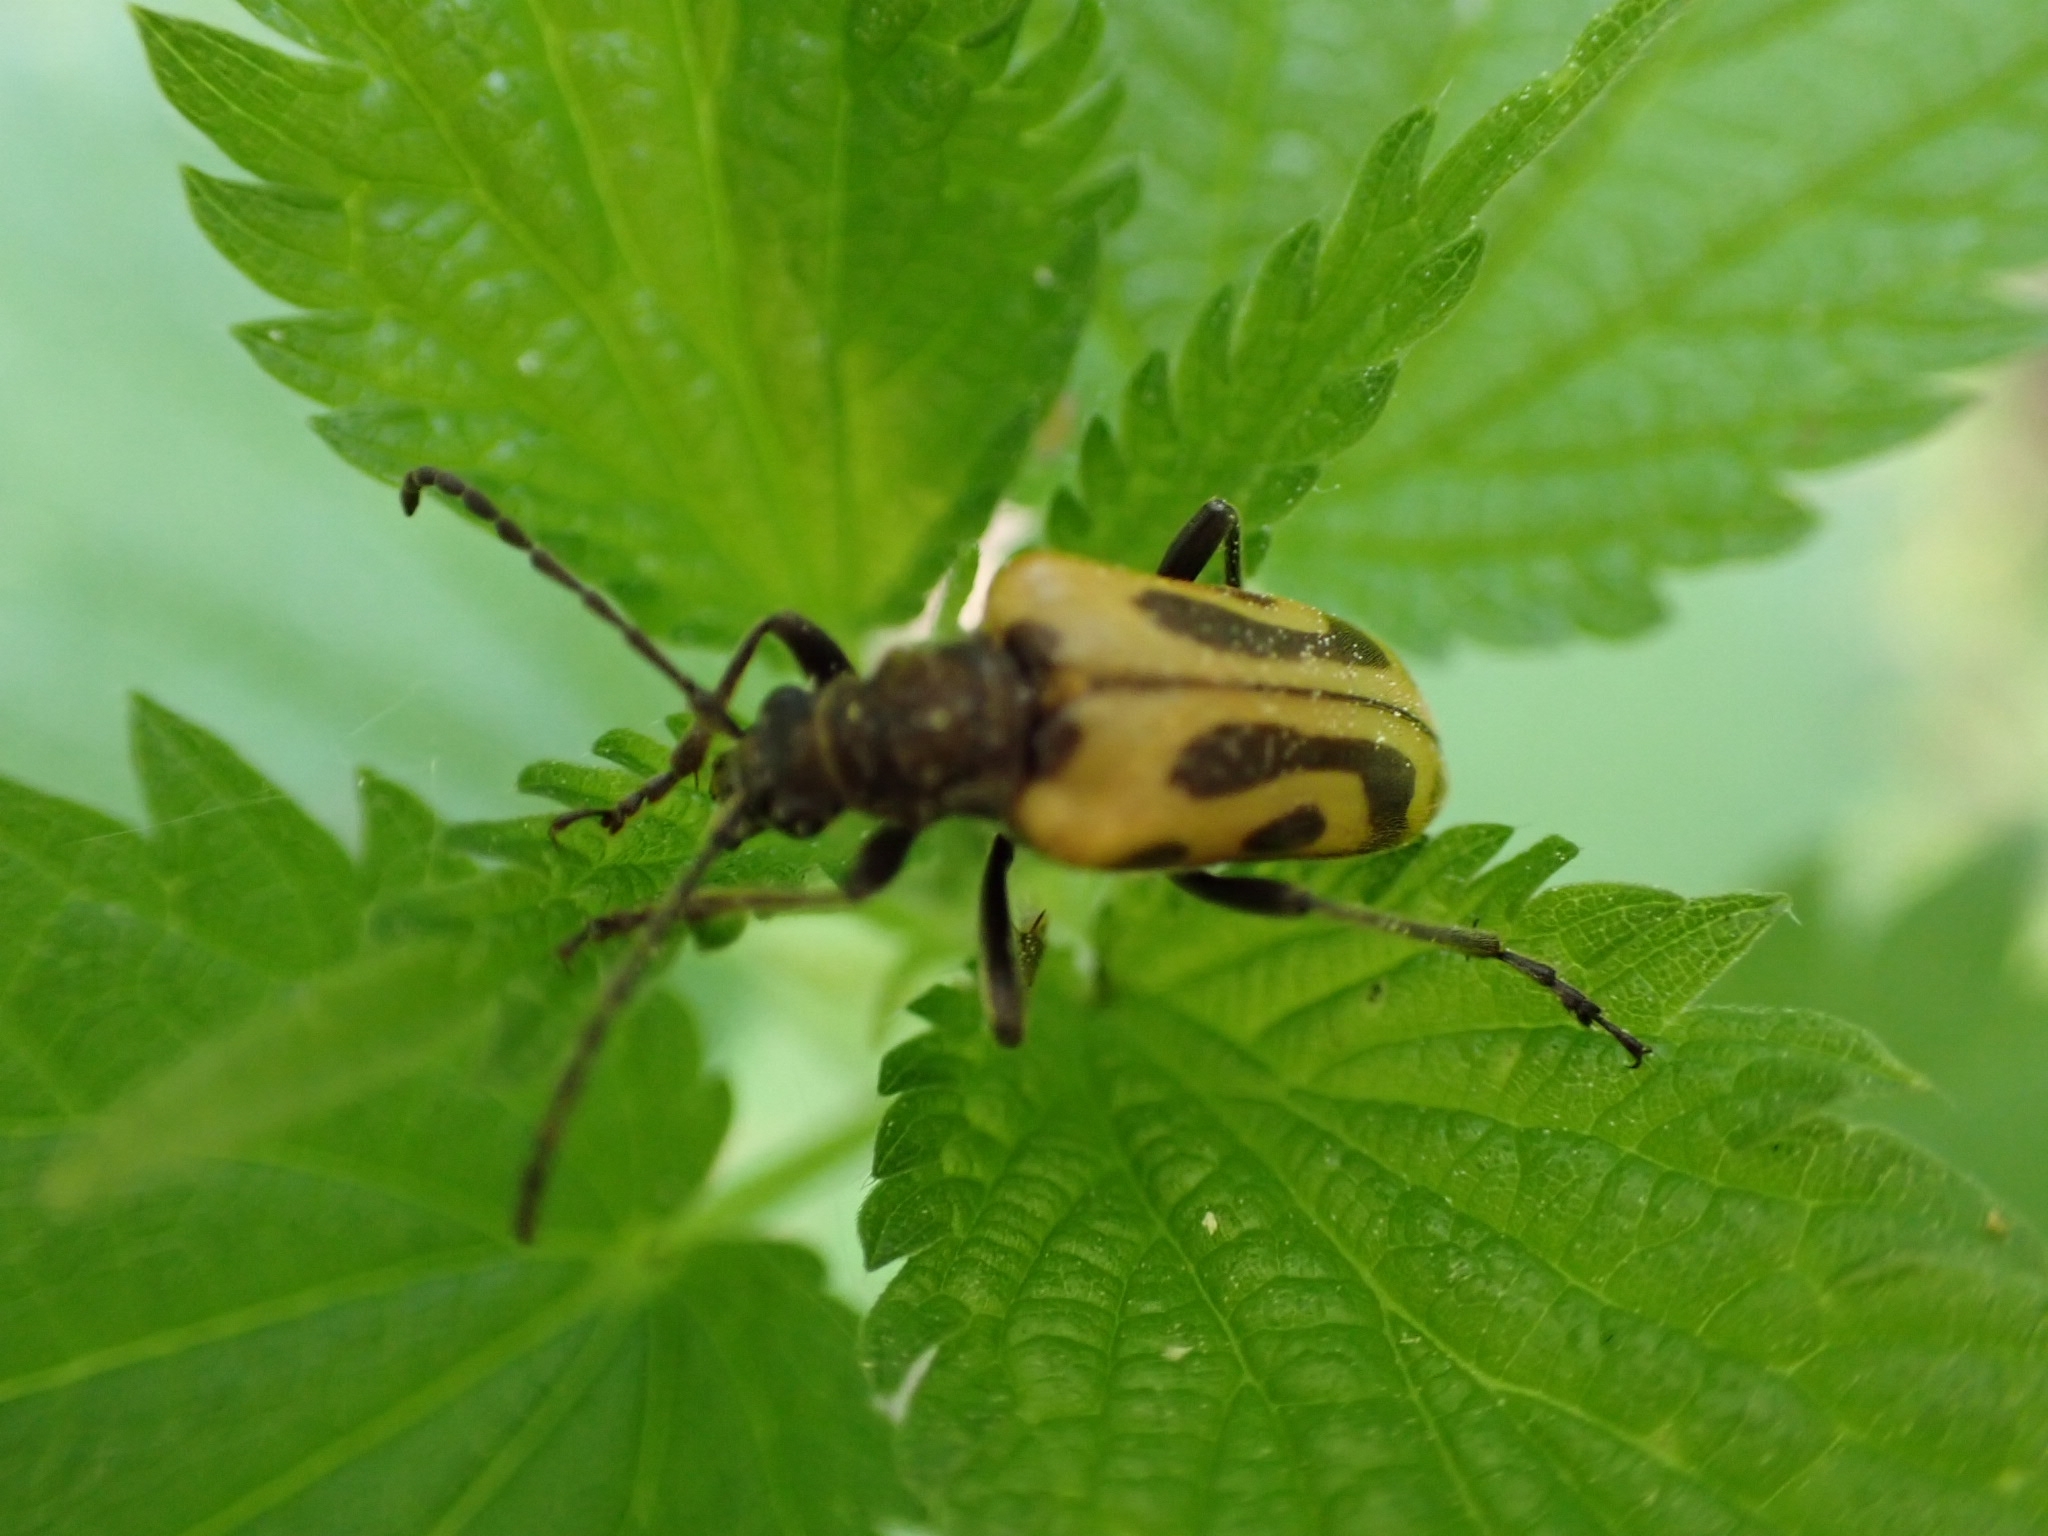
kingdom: Animalia
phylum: Arthropoda
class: Insecta
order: Coleoptera
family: Cerambycidae
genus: Brachyta
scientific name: Brachyta interrogationis
